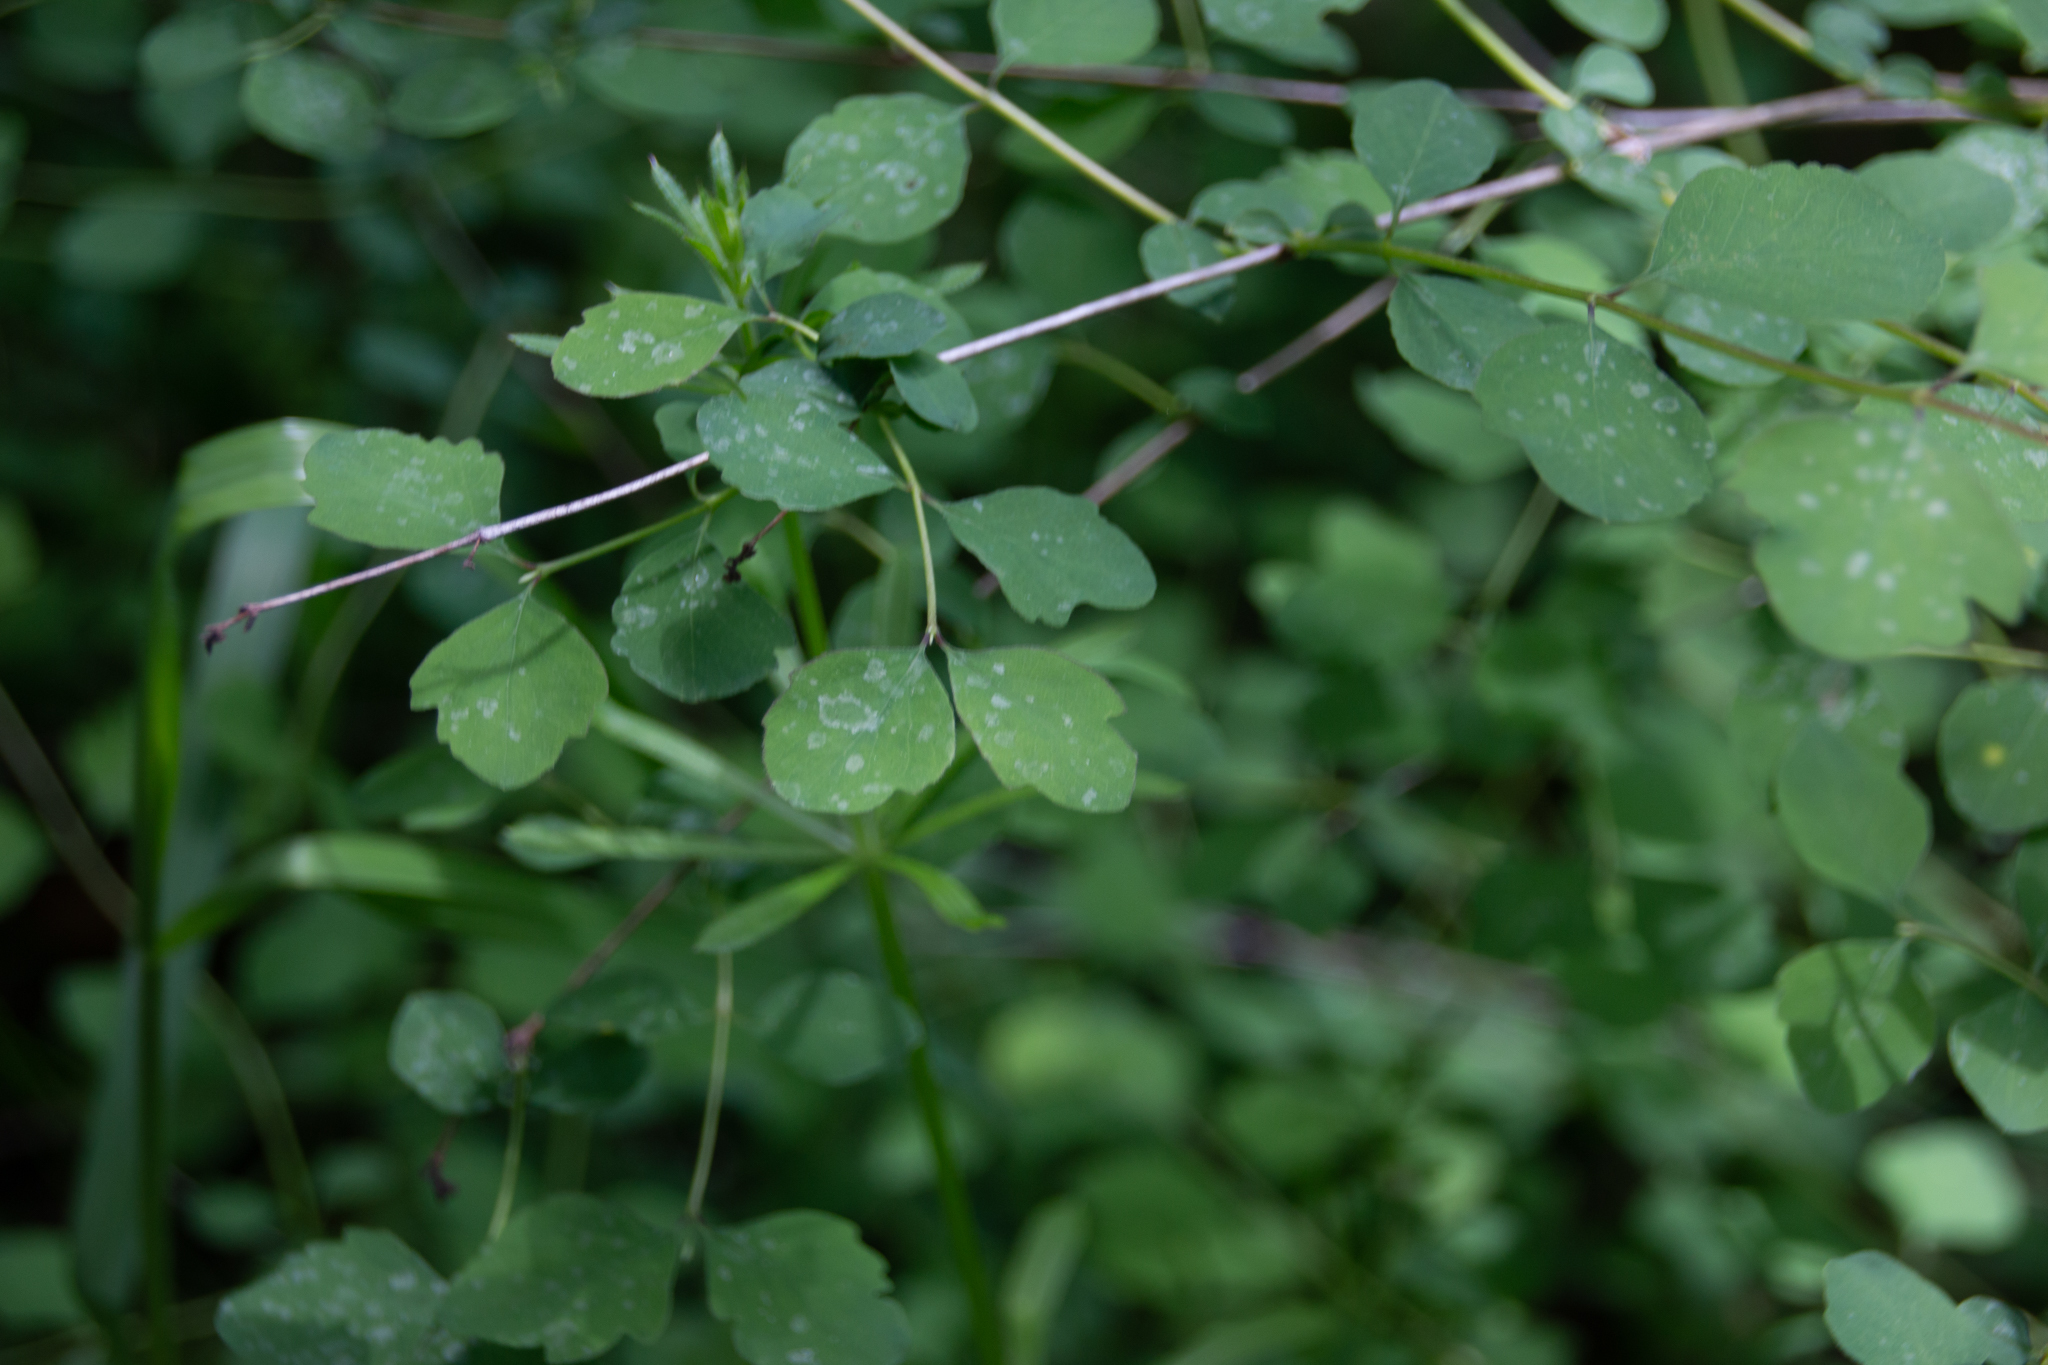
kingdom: Plantae
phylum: Tracheophyta
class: Magnoliopsida
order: Dipsacales
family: Caprifoliaceae
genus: Symphoricarpos
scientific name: Symphoricarpos albus
